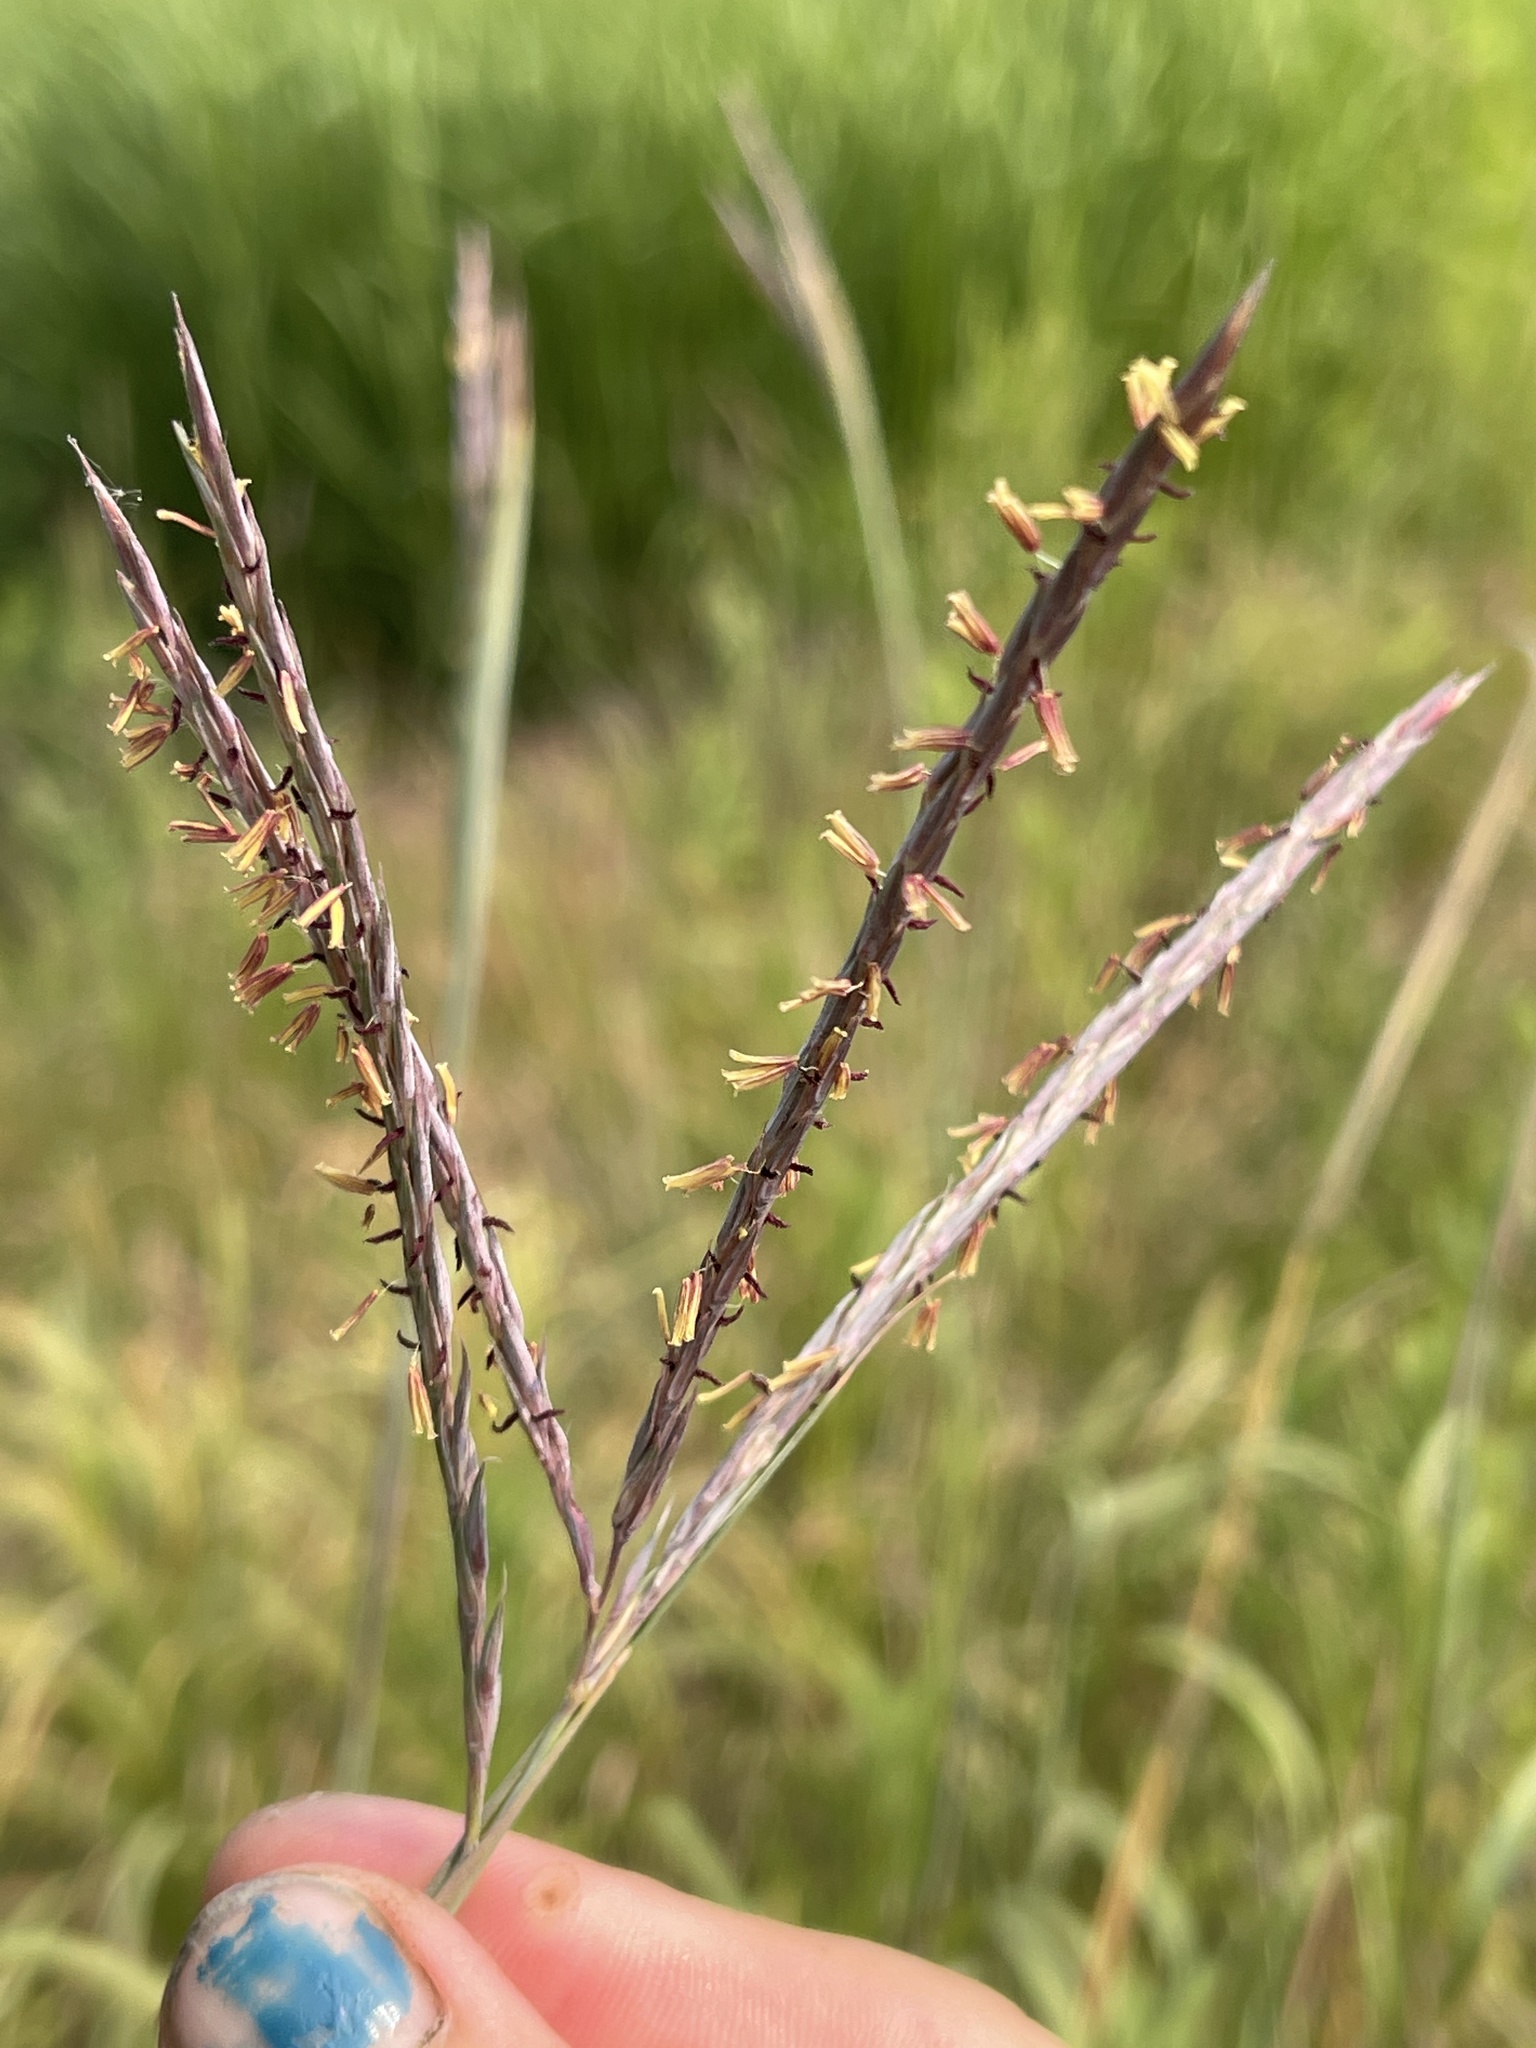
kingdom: Plantae
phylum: Tracheophyta
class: Liliopsida
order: Poales
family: Poaceae
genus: Andropogon
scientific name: Andropogon gerardi
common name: Big bluestem
